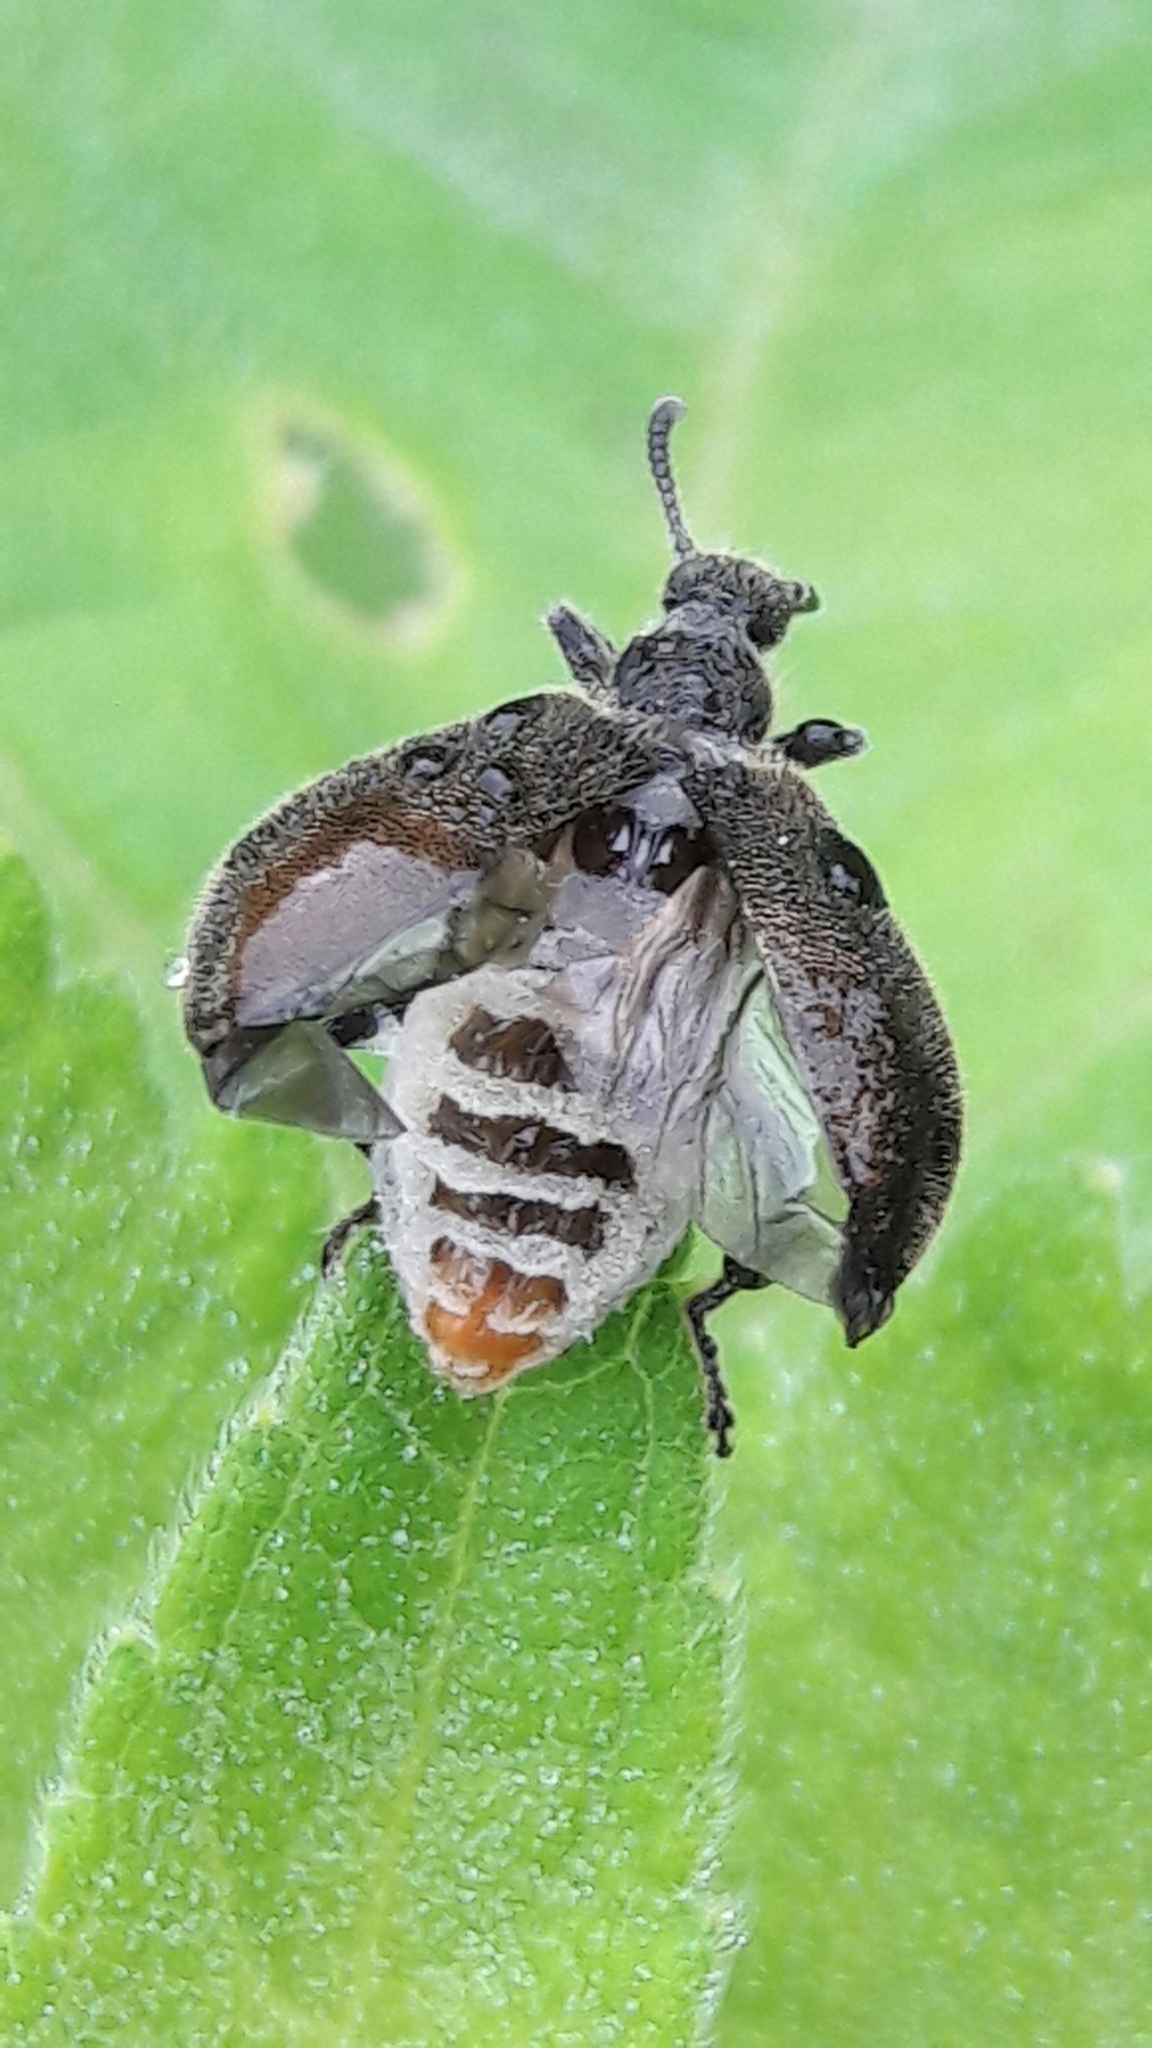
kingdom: Animalia
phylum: Arthropoda
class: Insecta
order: Coleoptera
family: Tenebrionidae
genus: Lagria
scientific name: Lagria villosa
